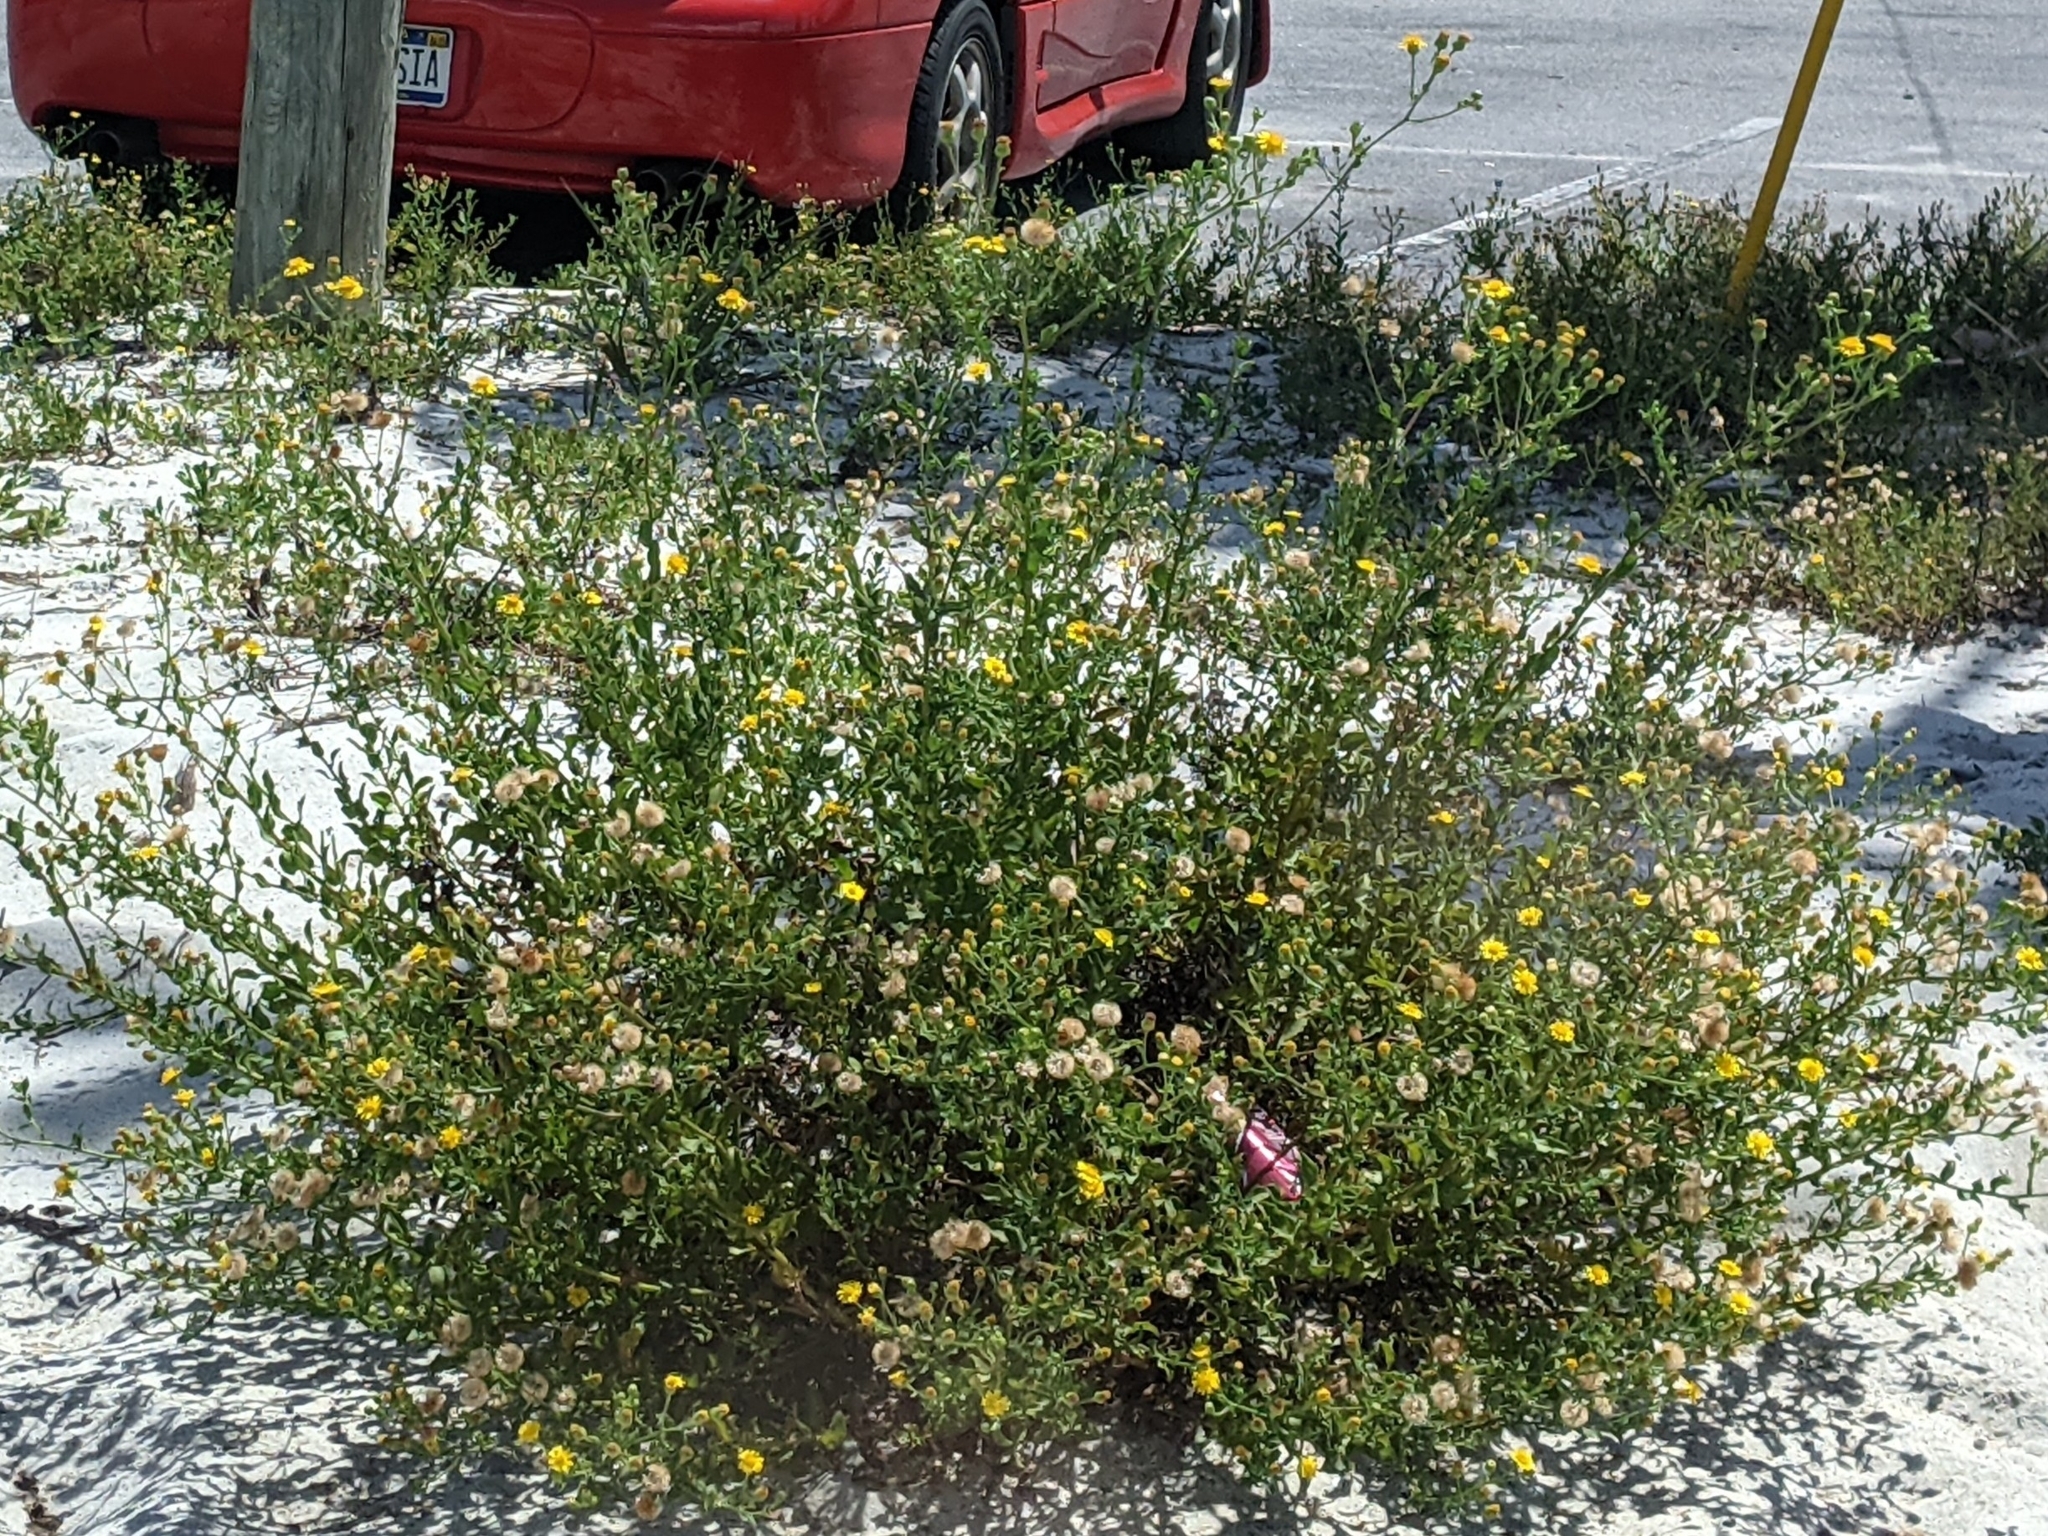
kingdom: Plantae
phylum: Tracheophyta
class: Magnoliopsida
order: Asterales
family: Asteraceae
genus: Heterotheca
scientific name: Heterotheca subaxillaris
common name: Camphorweed
